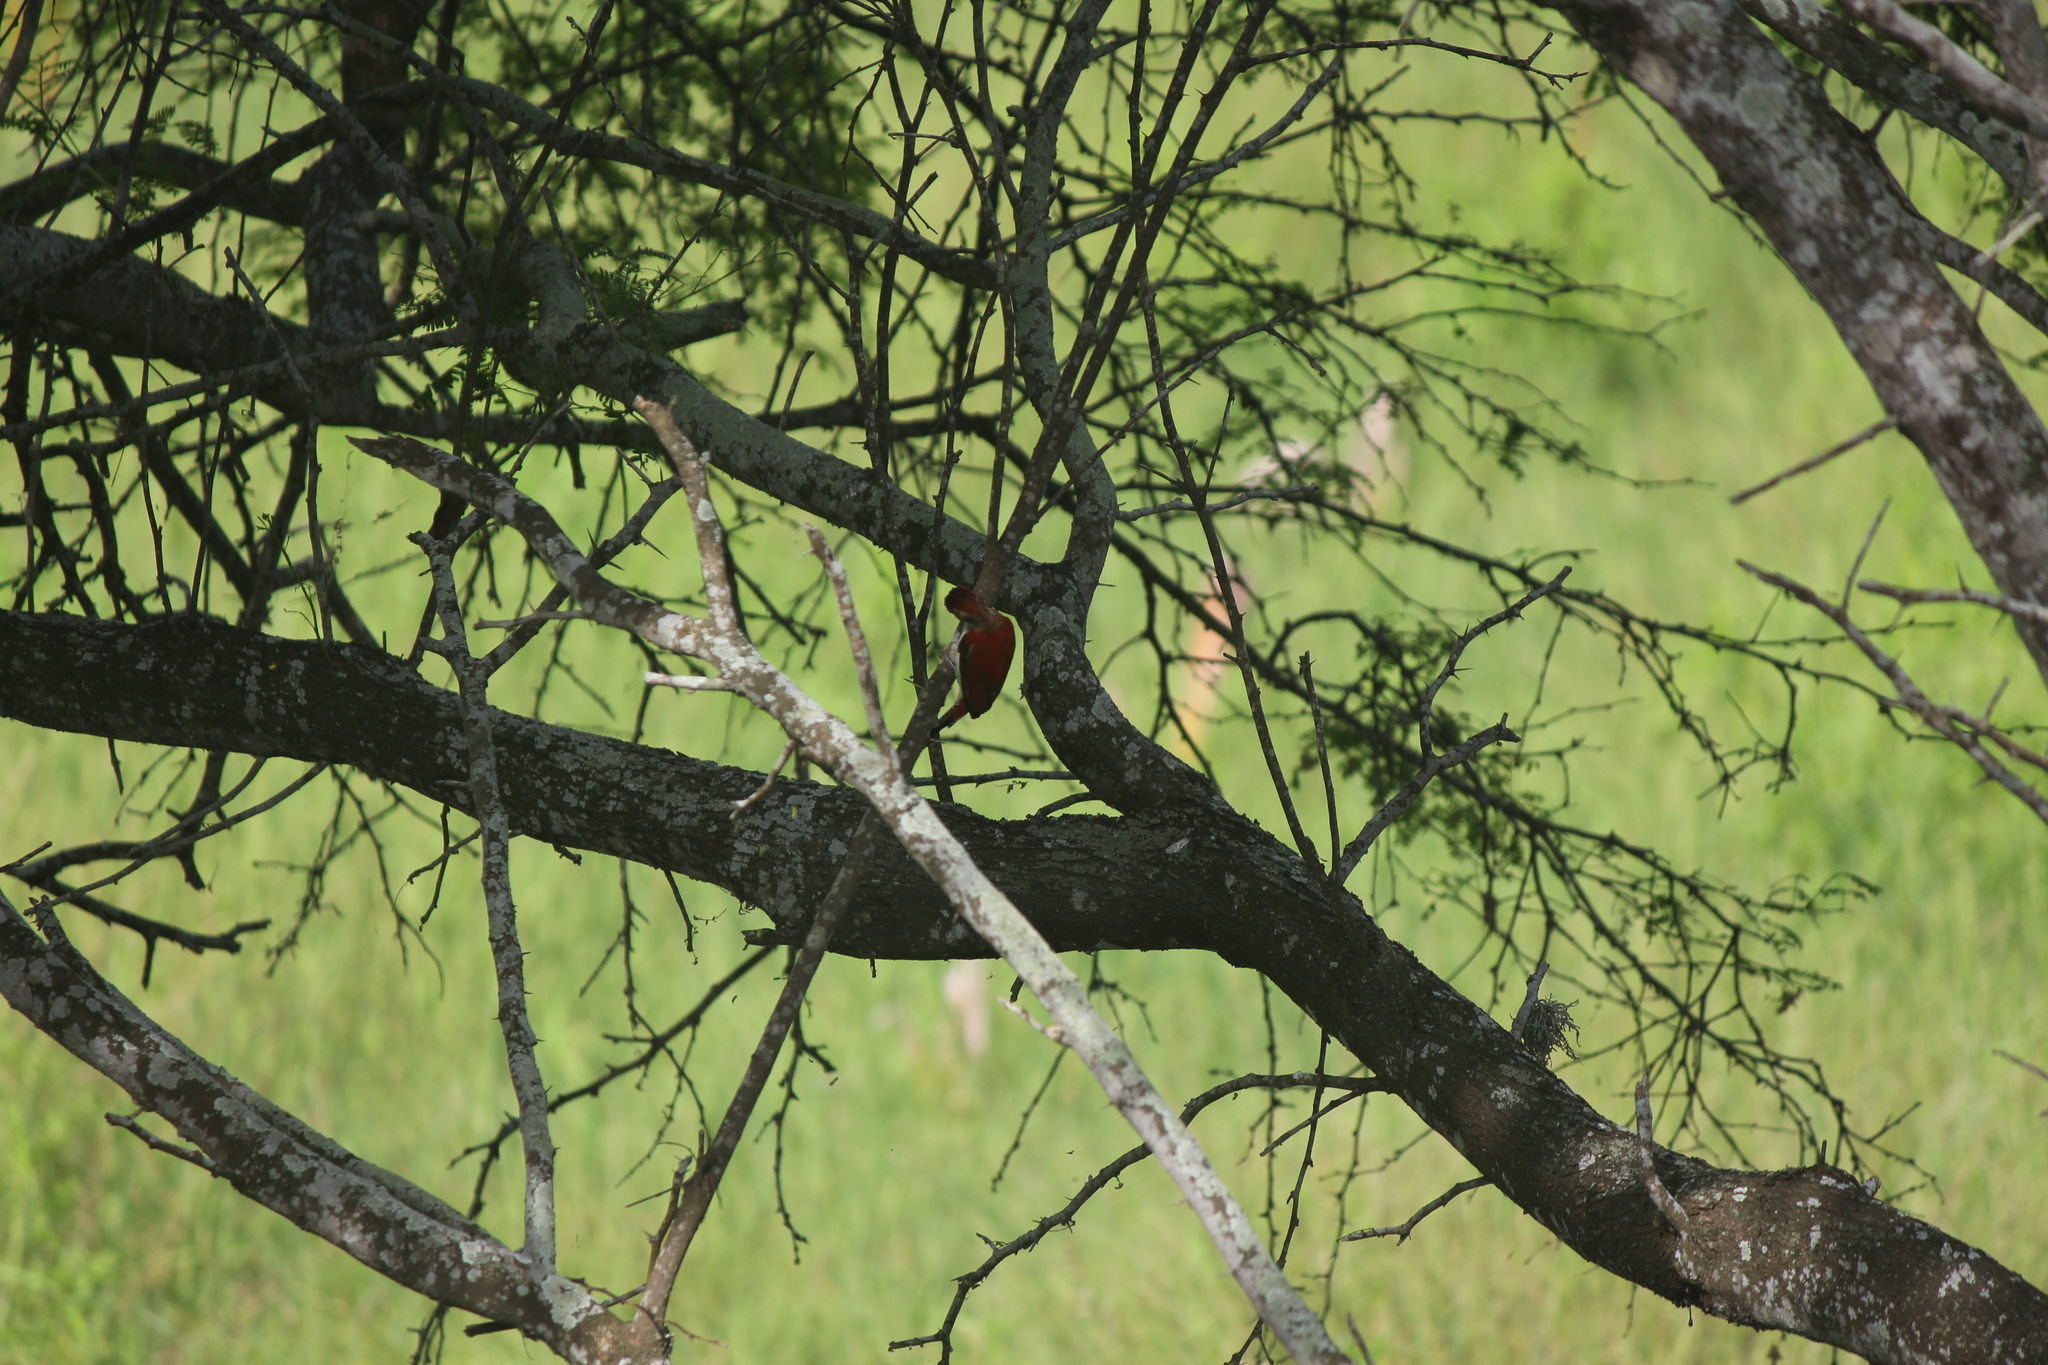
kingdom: Animalia
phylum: Chordata
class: Aves
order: Piciformes
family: Picidae
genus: Veniliornis
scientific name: Veniliornis callonotus
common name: Scarlet-backed woodpecker
